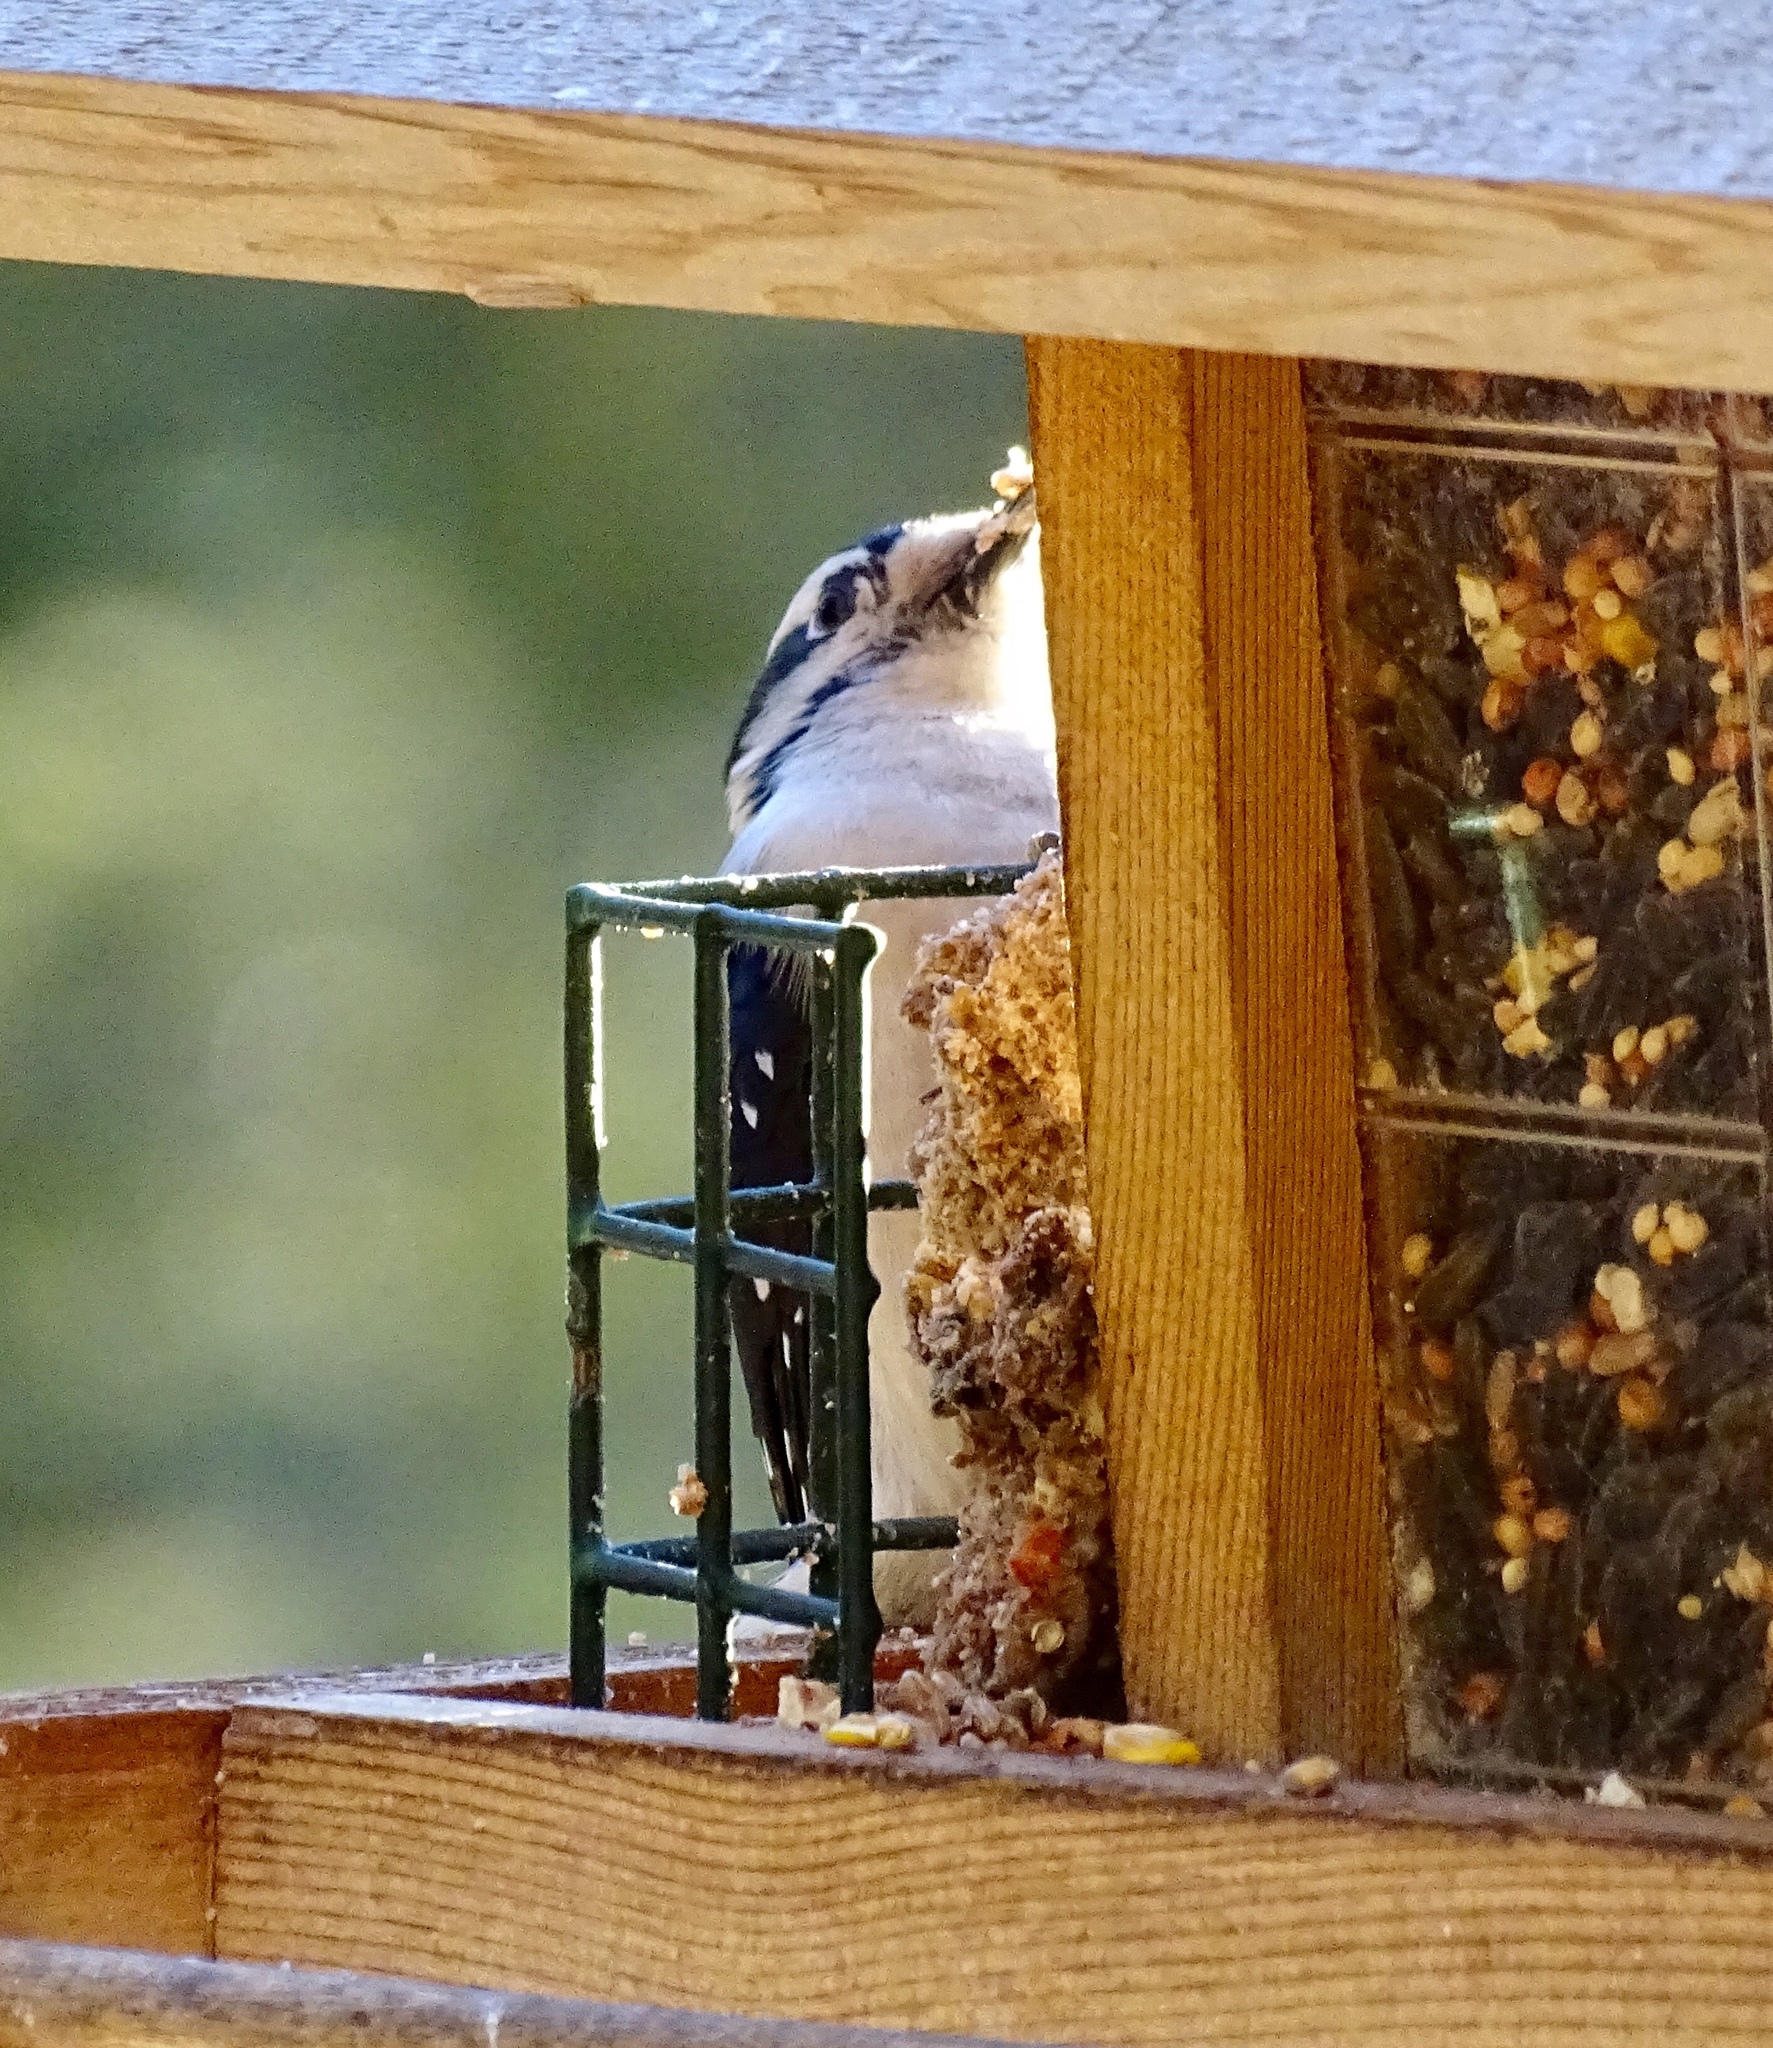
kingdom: Animalia
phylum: Chordata
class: Aves
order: Piciformes
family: Picidae
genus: Dryobates
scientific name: Dryobates pubescens
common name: Downy woodpecker
